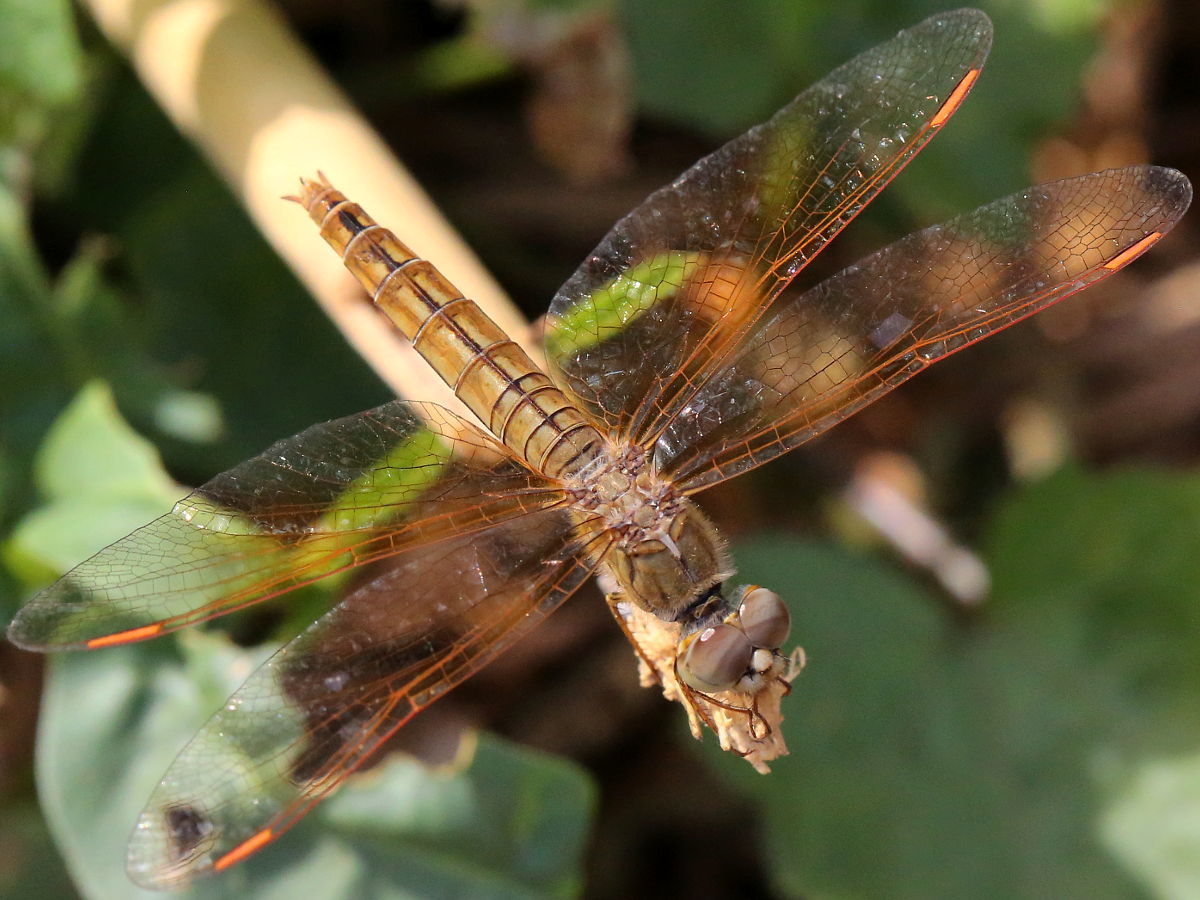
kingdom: Animalia
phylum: Arthropoda
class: Insecta
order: Odonata
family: Libellulidae
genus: Brachythemis
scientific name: Brachythemis contaminata
